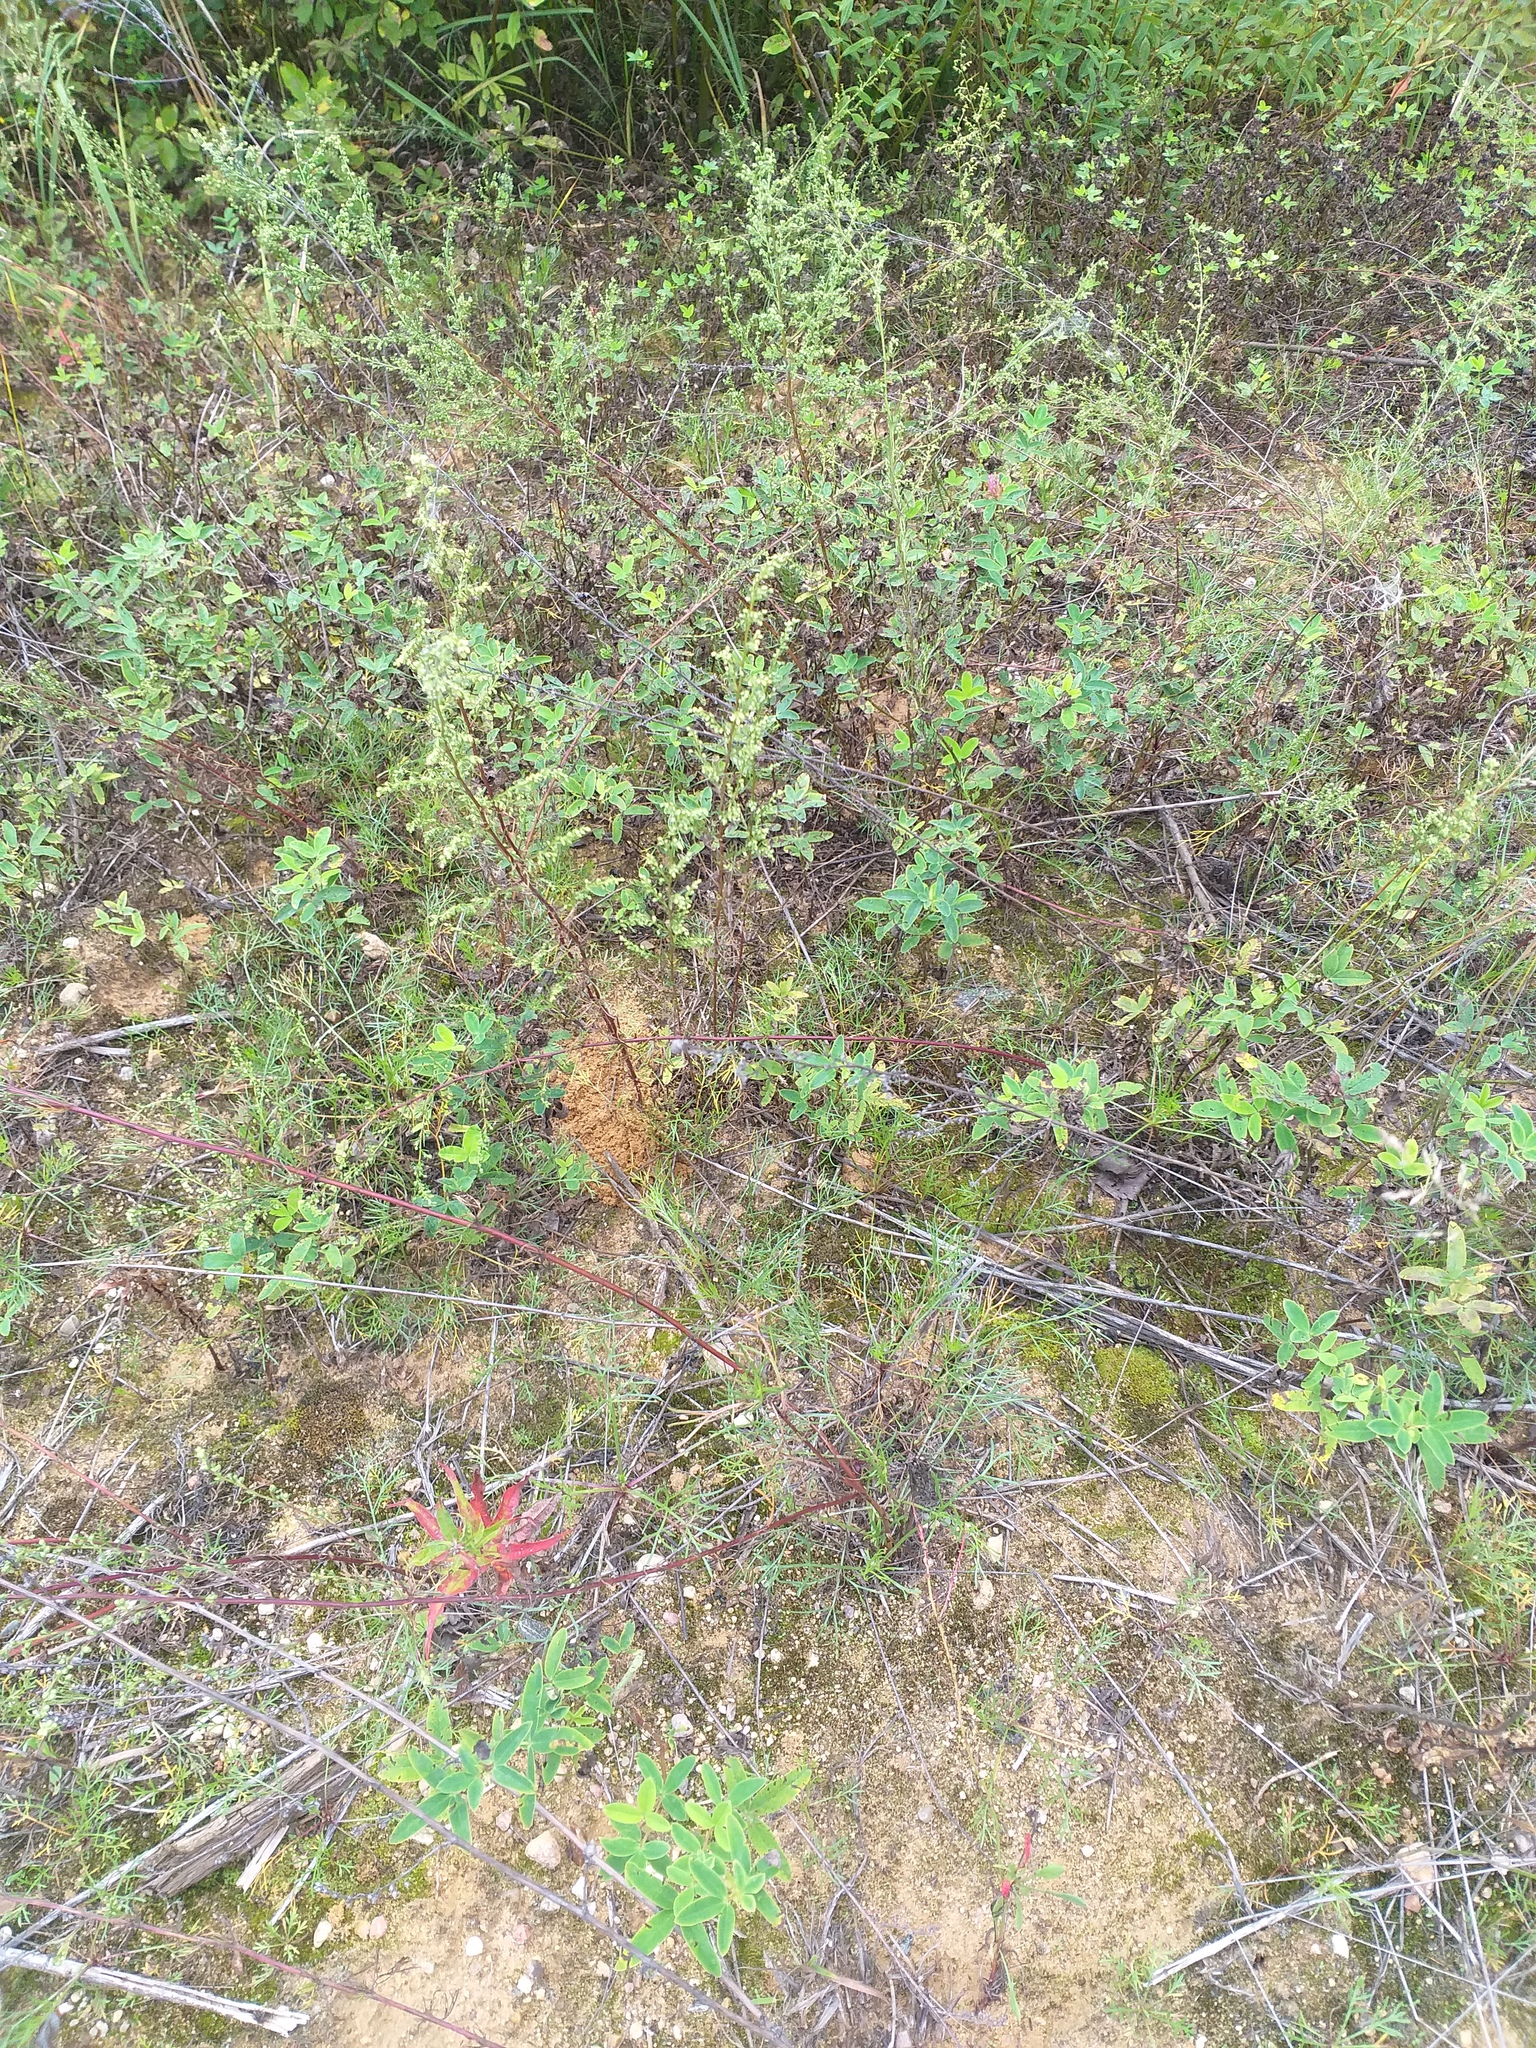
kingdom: Plantae
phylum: Tracheophyta
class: Magnoliopsida
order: Fabales
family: Fabaceae
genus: Trifolium
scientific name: Trifolium medium
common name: Zigzag clover
